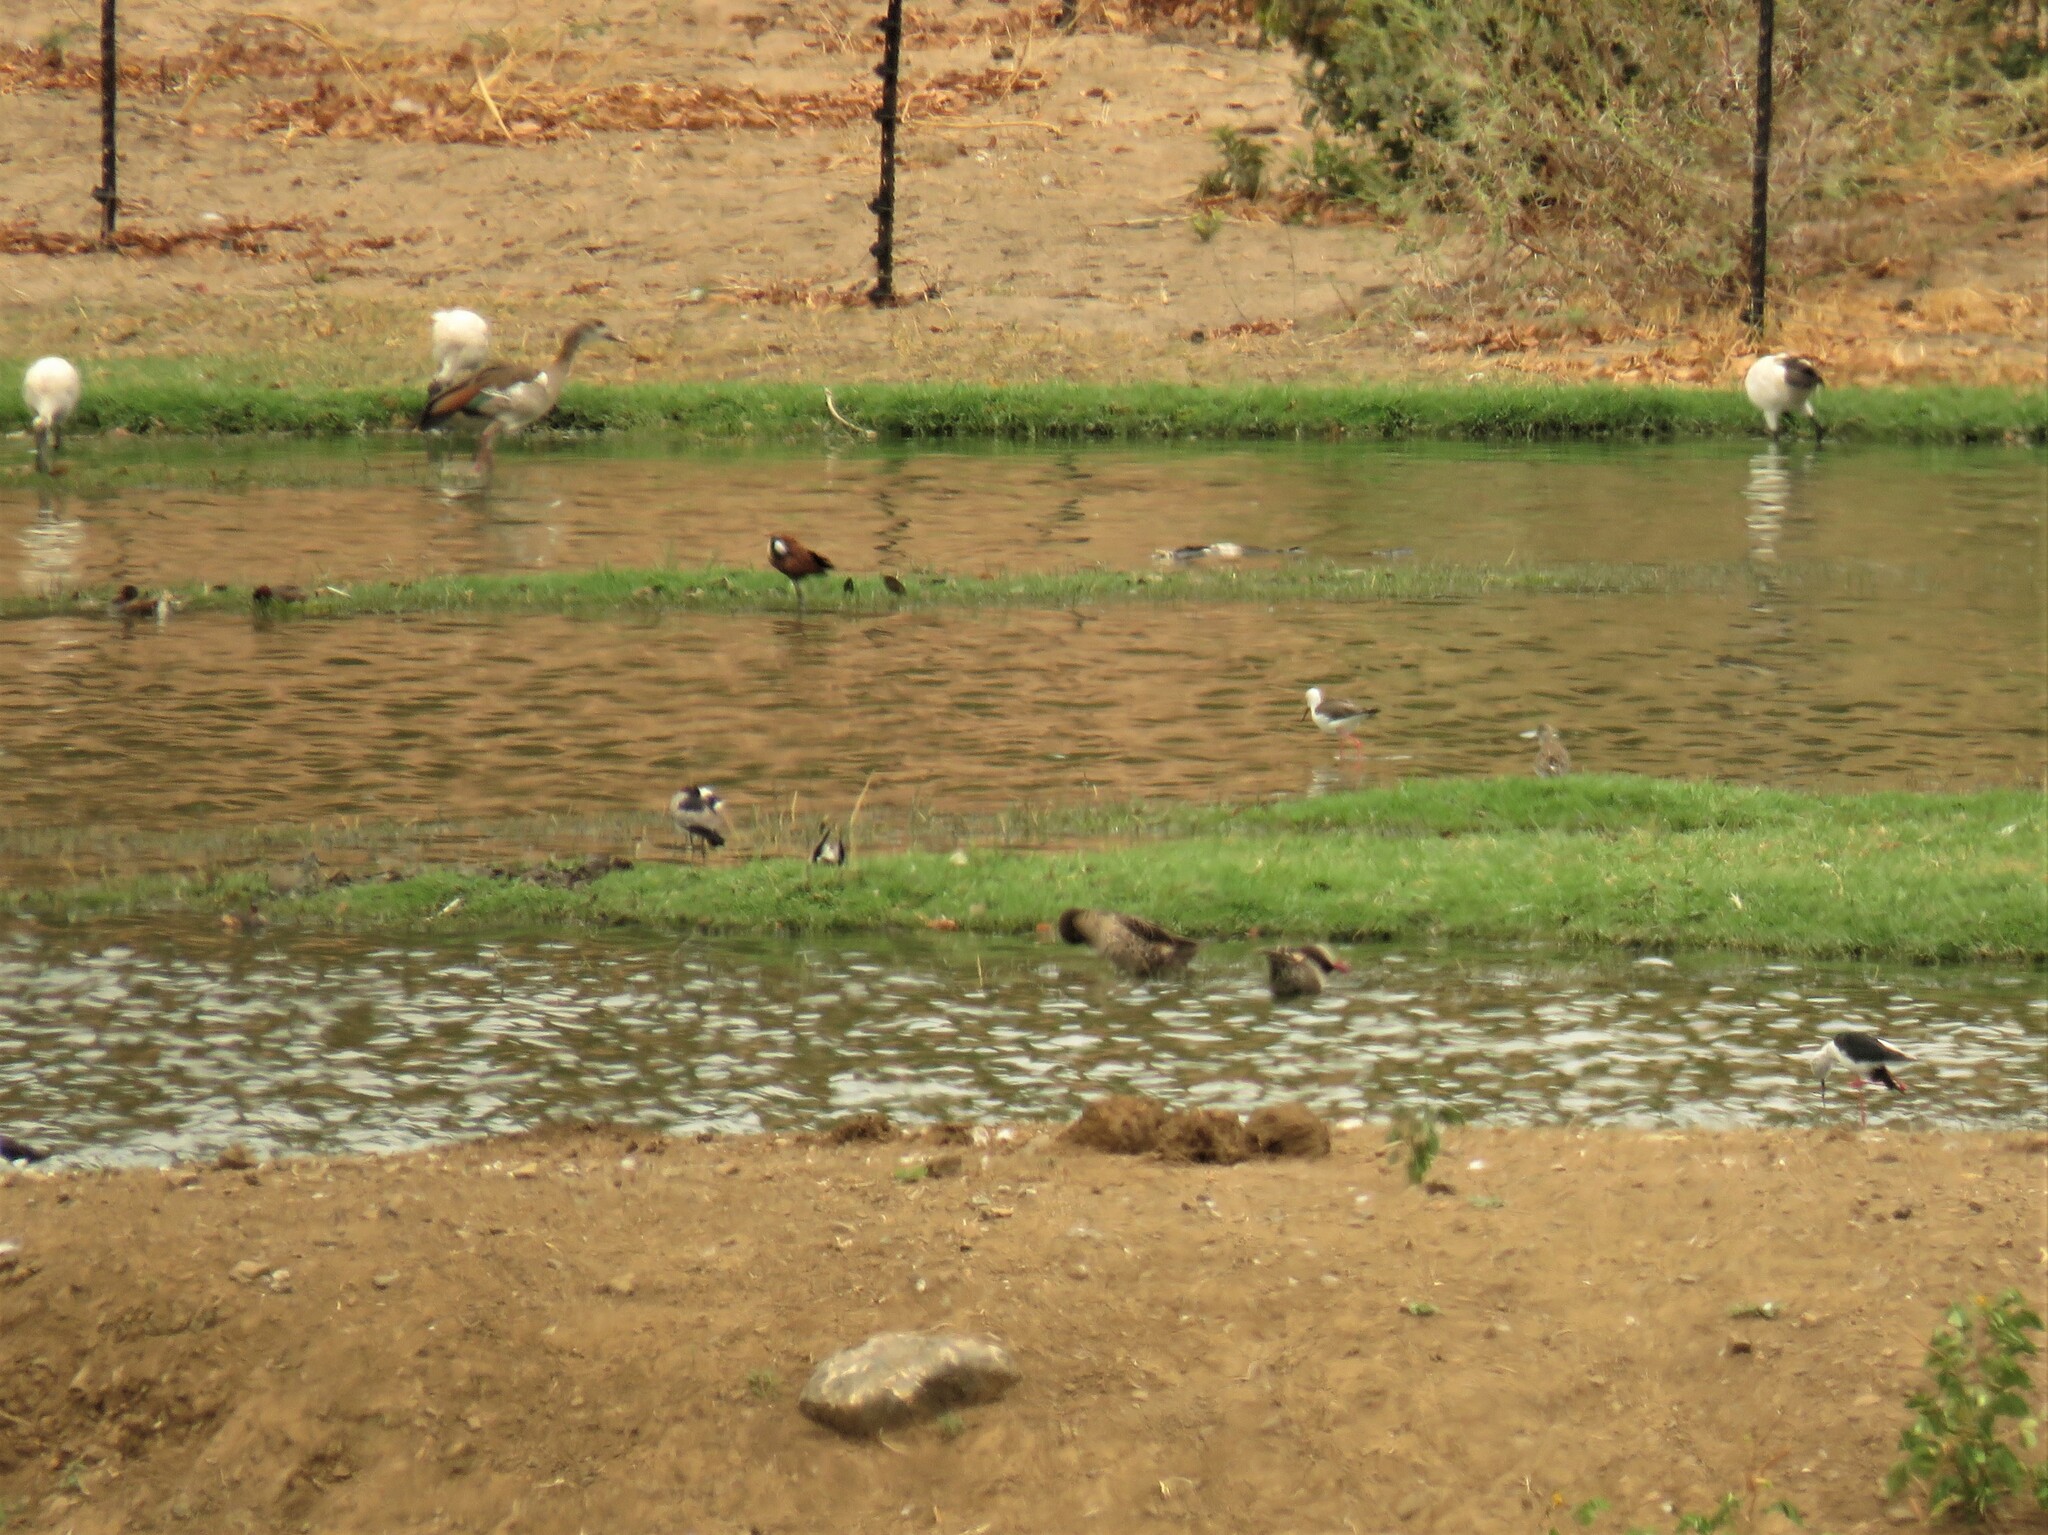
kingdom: Animalia
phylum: Chordata
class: Aves
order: Pelecaniformes
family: Threskiornithidae
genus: Threskiornis
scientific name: Threskiornis aethiopicus
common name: Sacred ibis
